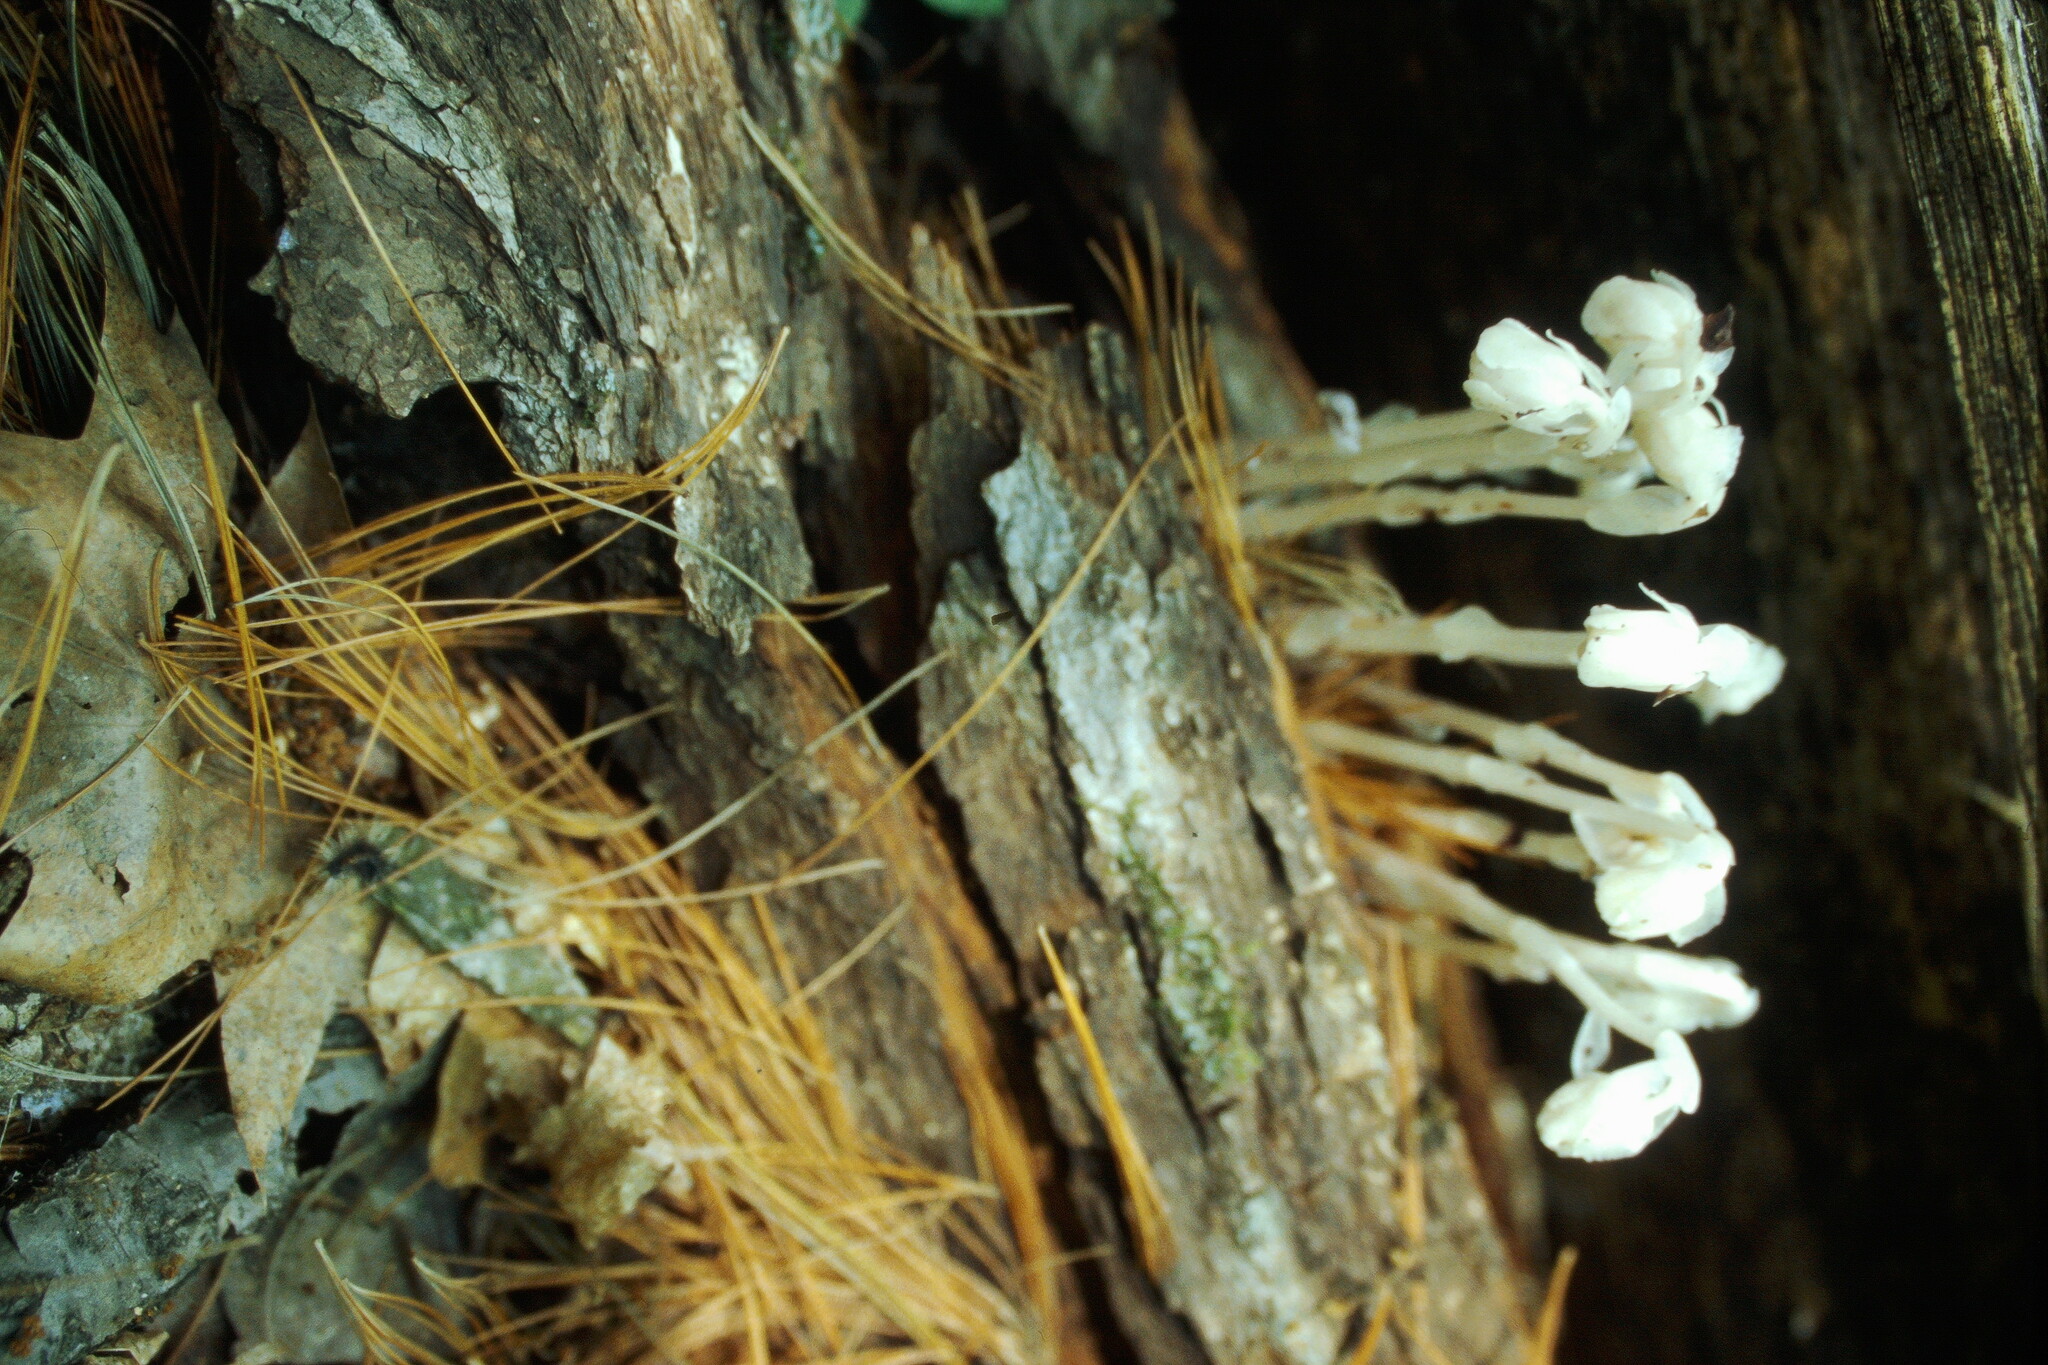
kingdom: Plantae
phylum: Tracheophyta
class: Magnoliopsida
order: Ericales
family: Ericaceae
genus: Monotropa
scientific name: Monotropa uniflora
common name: Convulsion root
